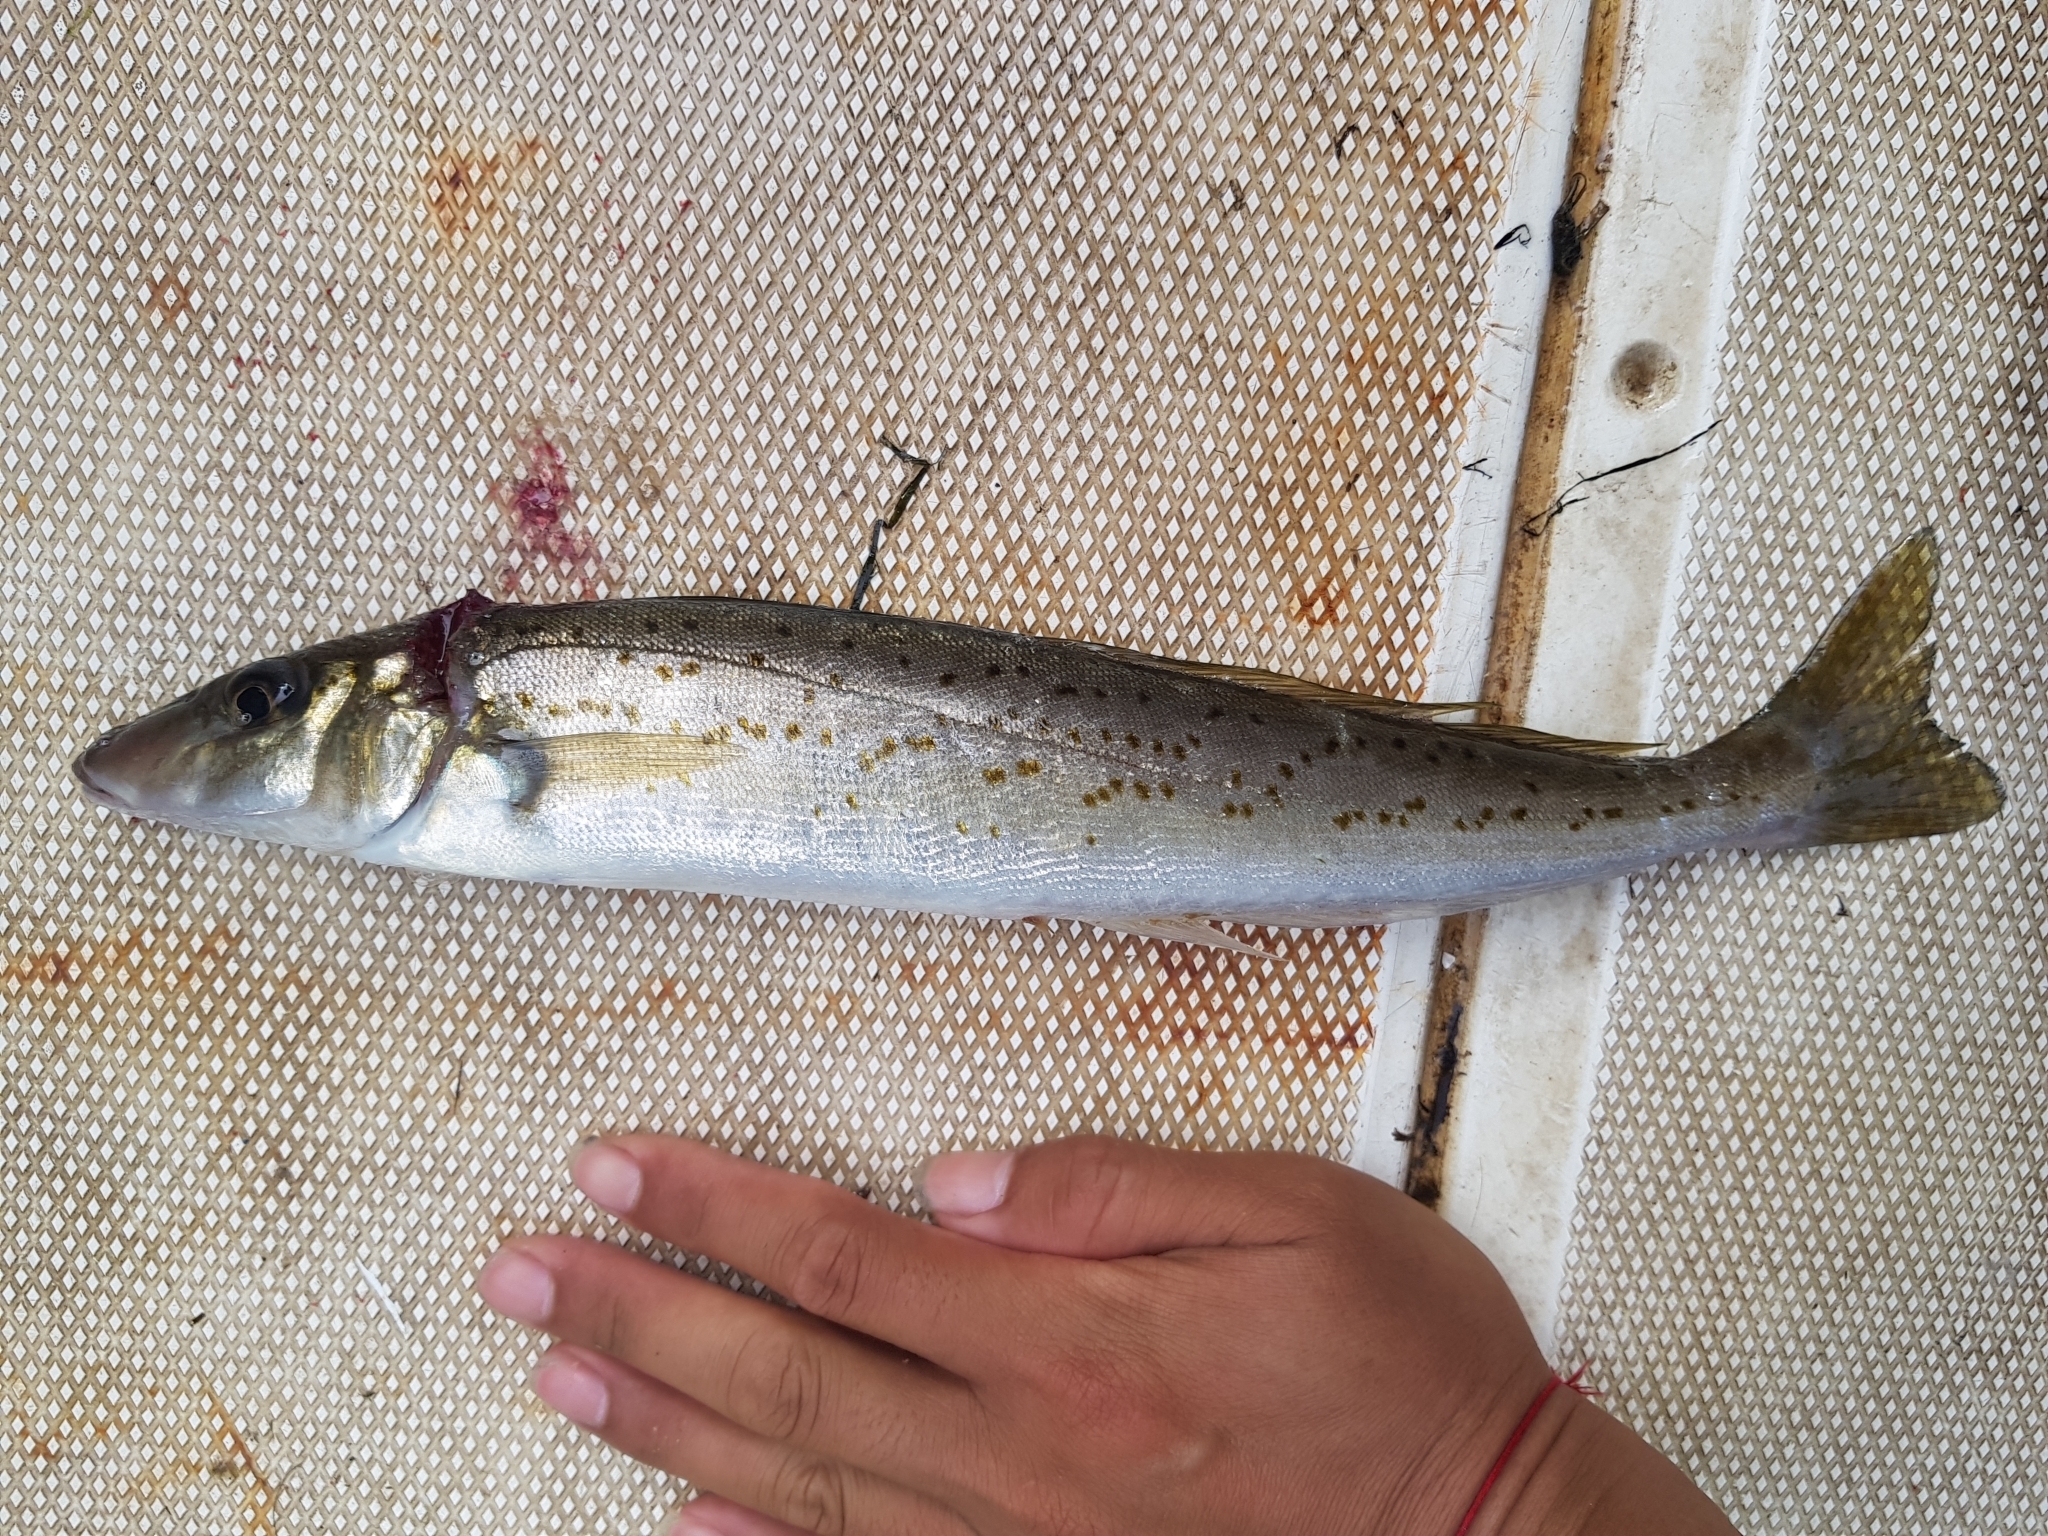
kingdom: Animalia
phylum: Chordata
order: Perciformes
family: Sillaginidae
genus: Sillaginodes
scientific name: Sillaginodes punctatus
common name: King george whiting
